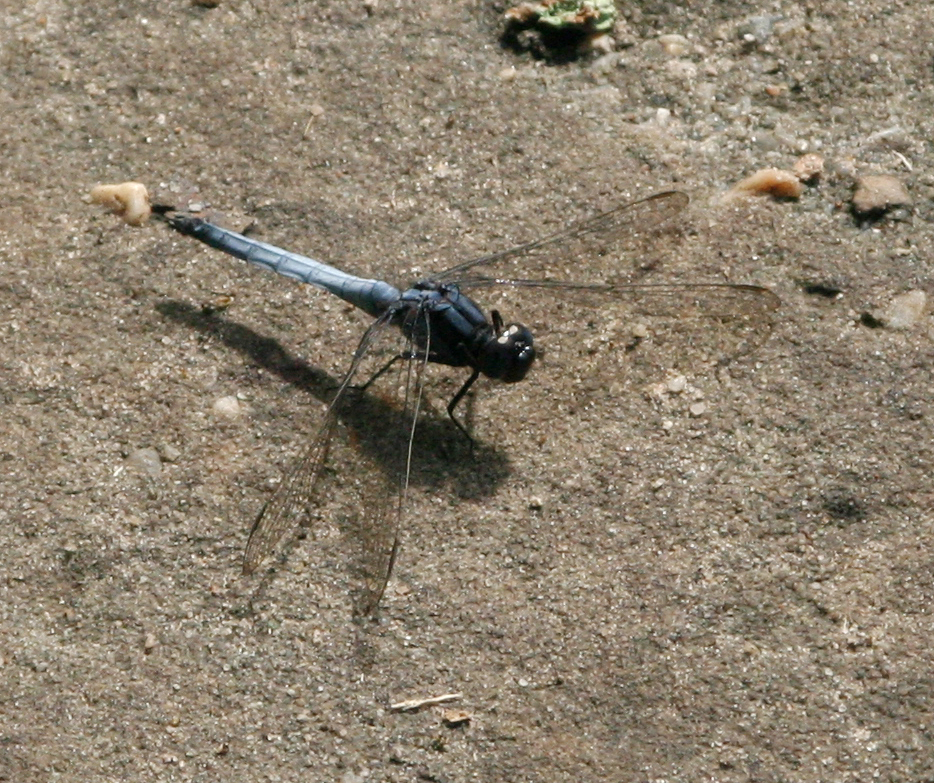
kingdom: Animalia
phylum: Arthropoda
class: Insecta
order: Odonata
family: Libellulidae
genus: Orthetrum
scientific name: Orthetrum glaucum
